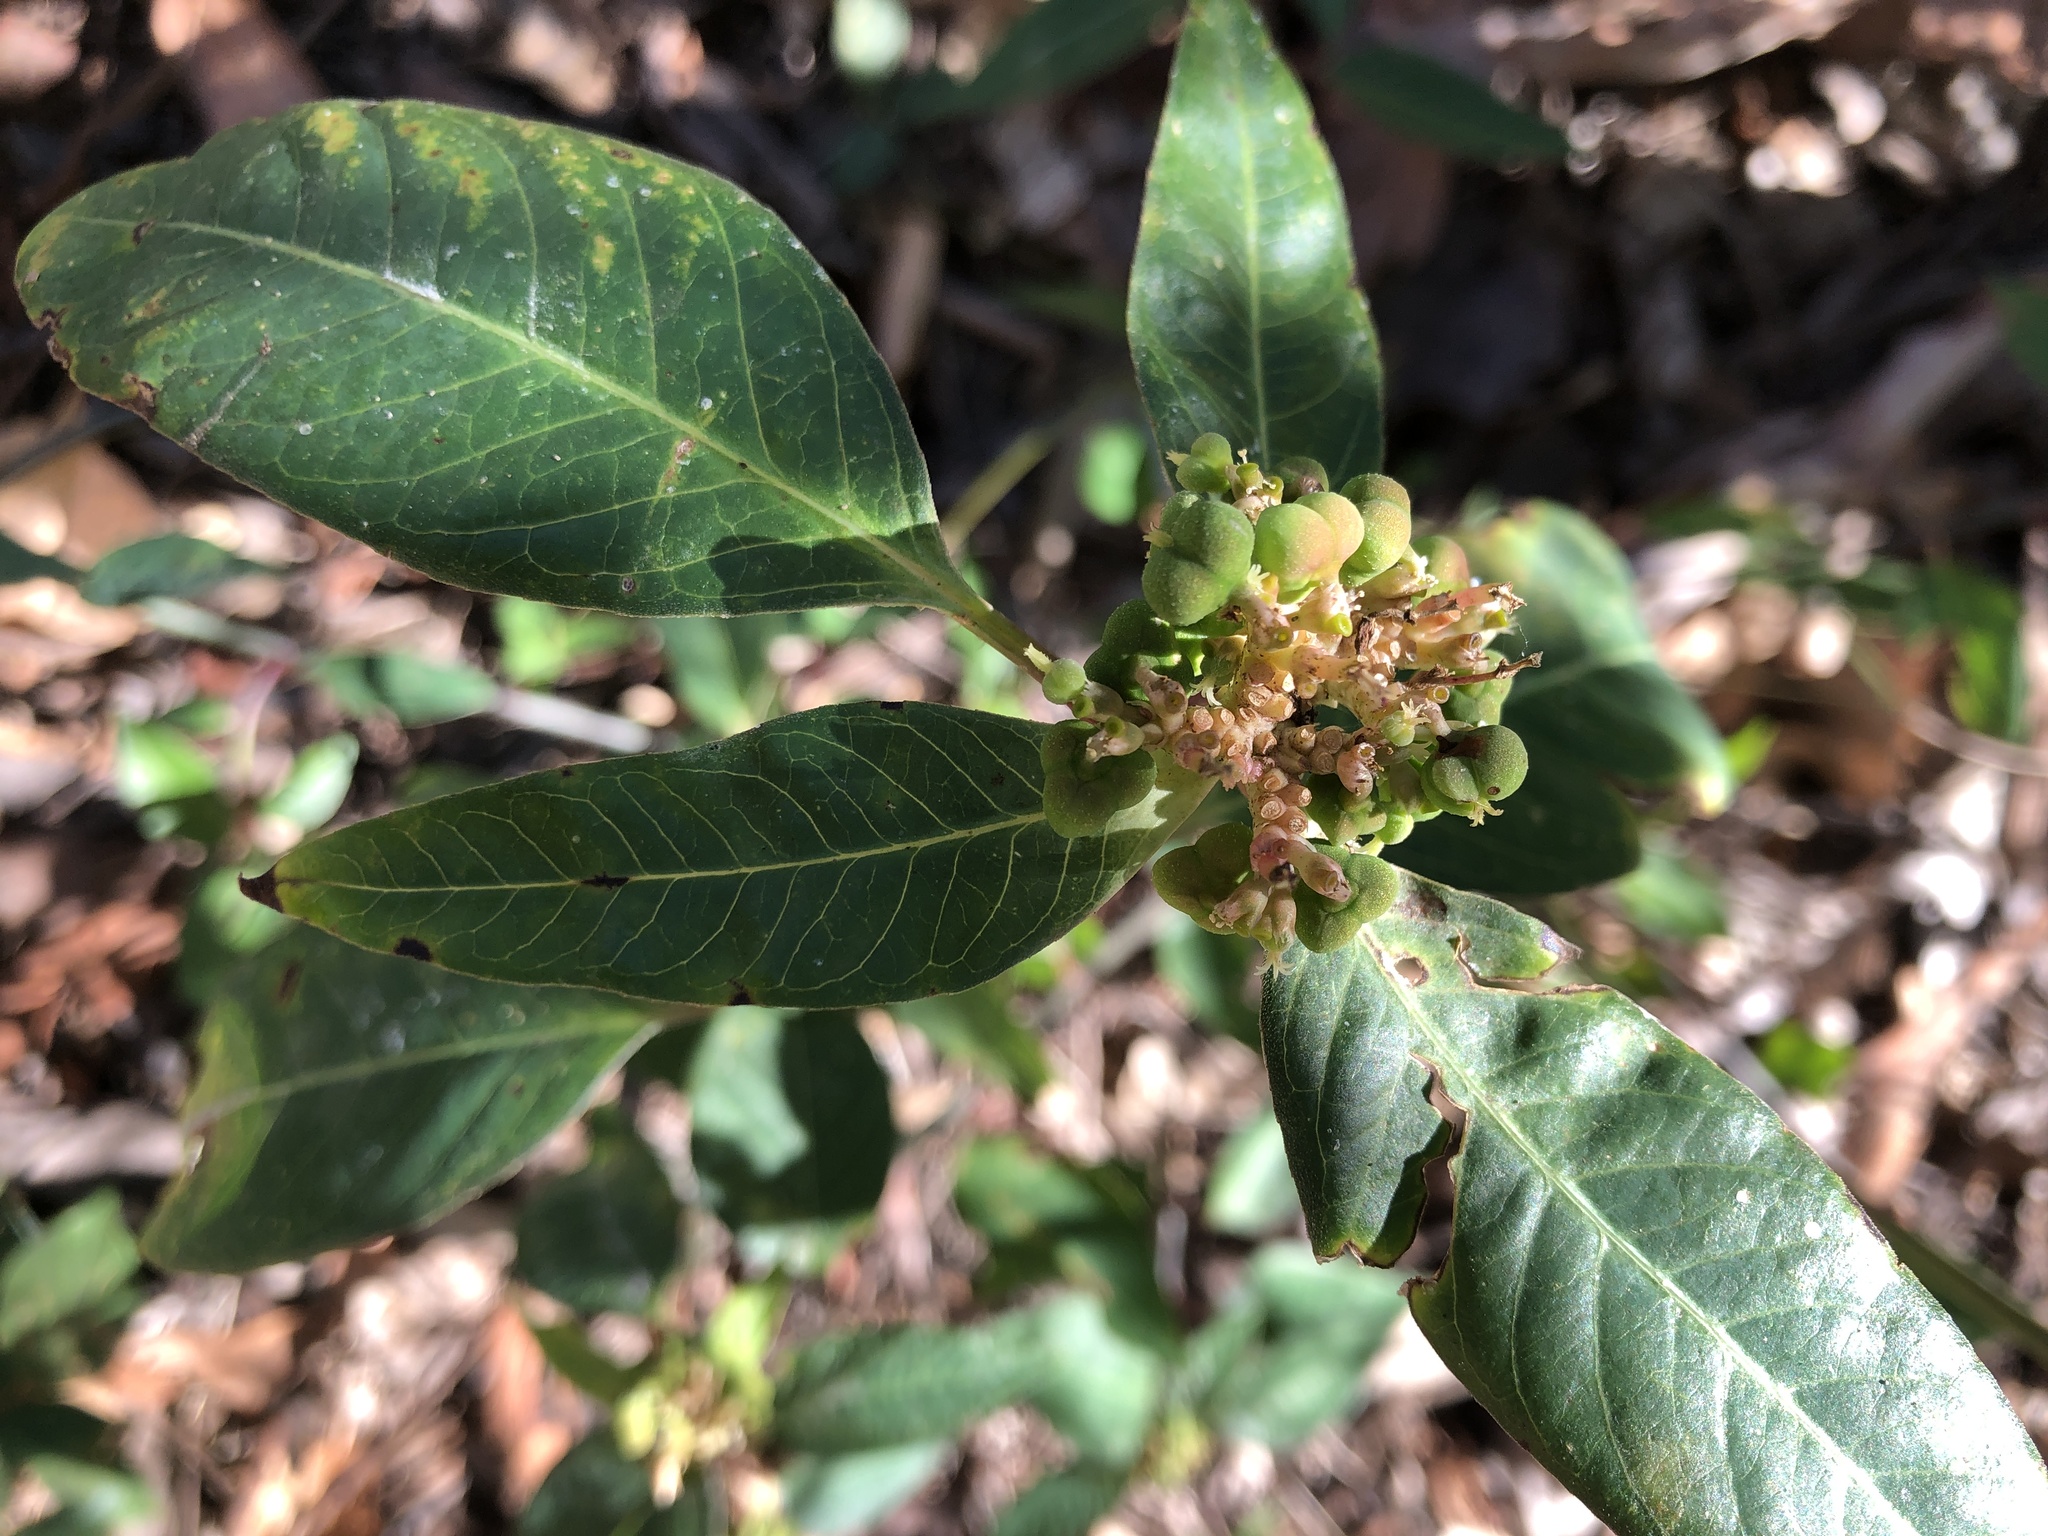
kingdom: Plantae
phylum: Tracheophyta
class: Magnoliopsida
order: Malpighiales
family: Euphorbiaceae
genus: Euphorbia
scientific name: Euphorbia heterophylla
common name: Mexican fireplant
